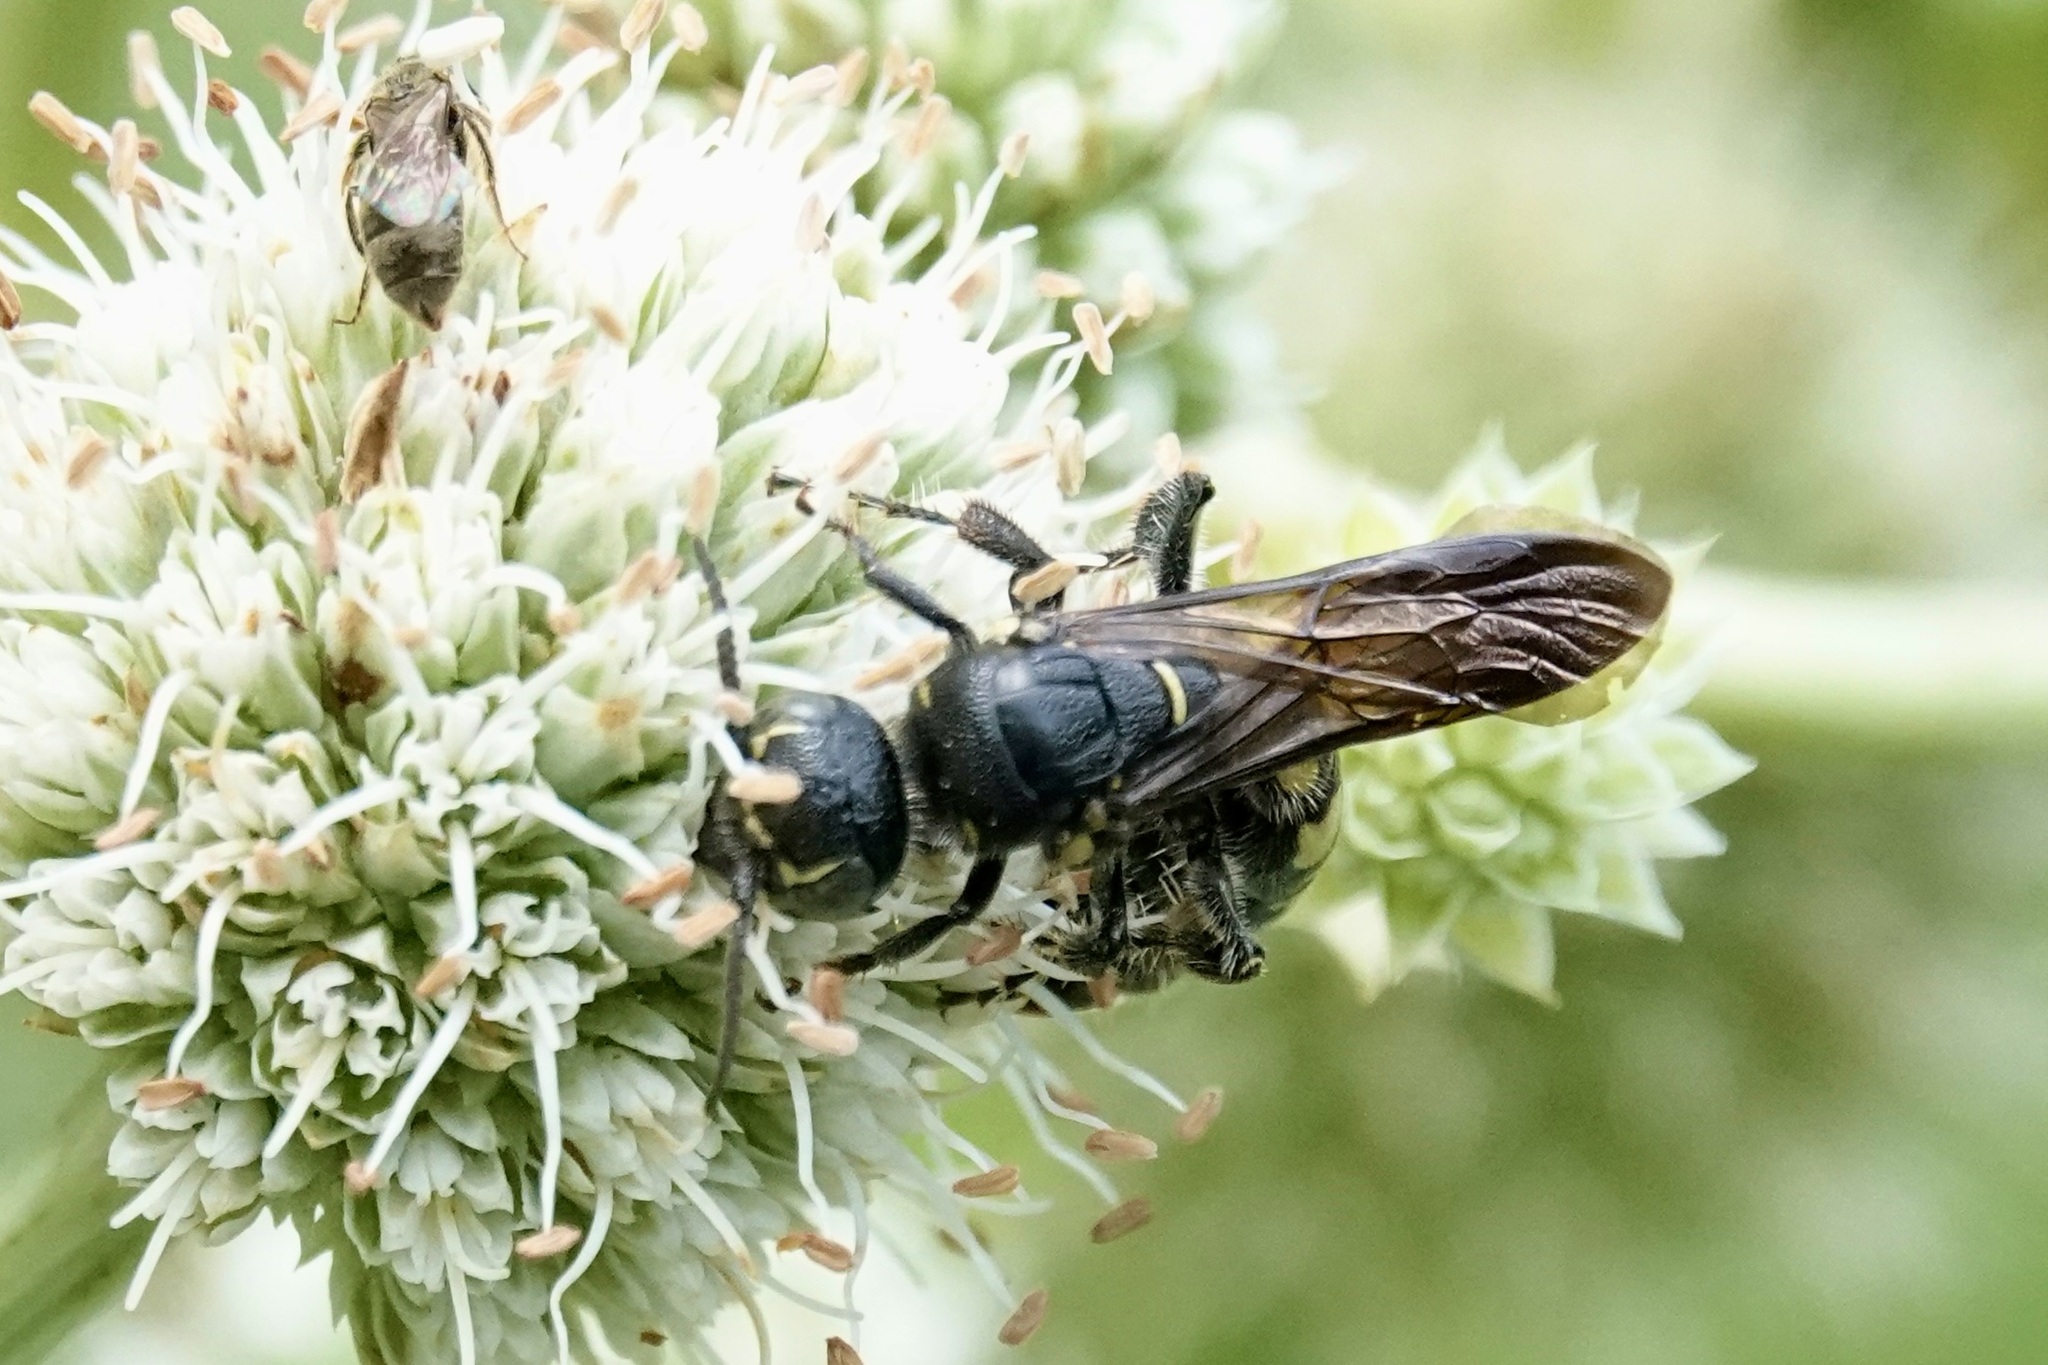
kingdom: Animalia
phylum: Arthropoda
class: Insecta
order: Hymenoptera
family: Tiphiidae
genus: Myzinum
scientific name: Myzinum obscurum
